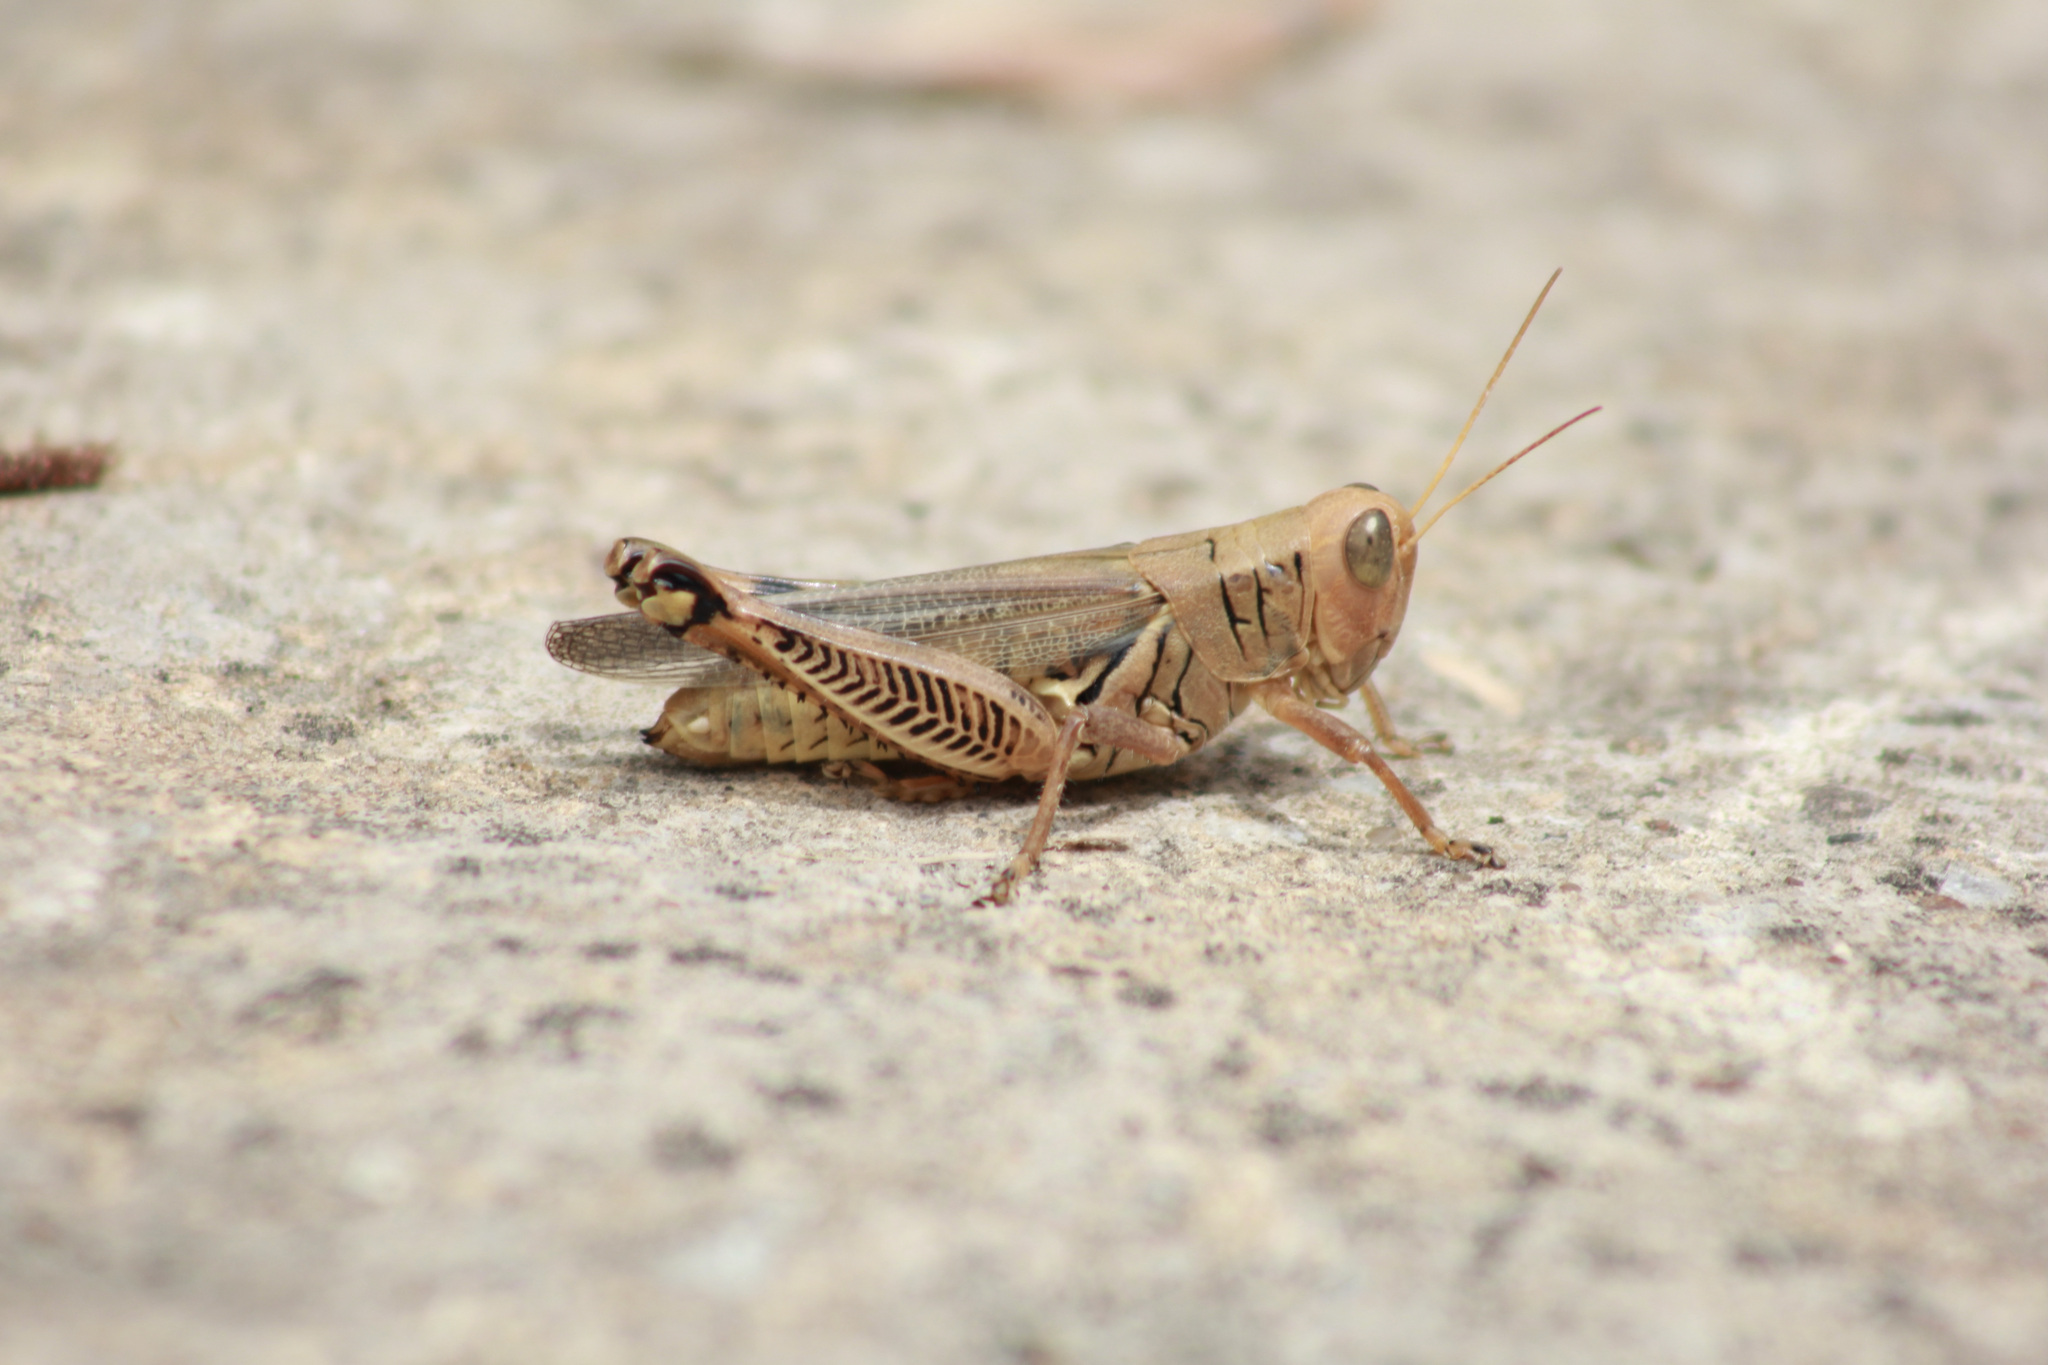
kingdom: Animalia
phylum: Arthropoda
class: Insecta
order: Orthoptera
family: Acrididae
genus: Melanoplus
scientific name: Melanoplus differentialis
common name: Differential grasshopper
